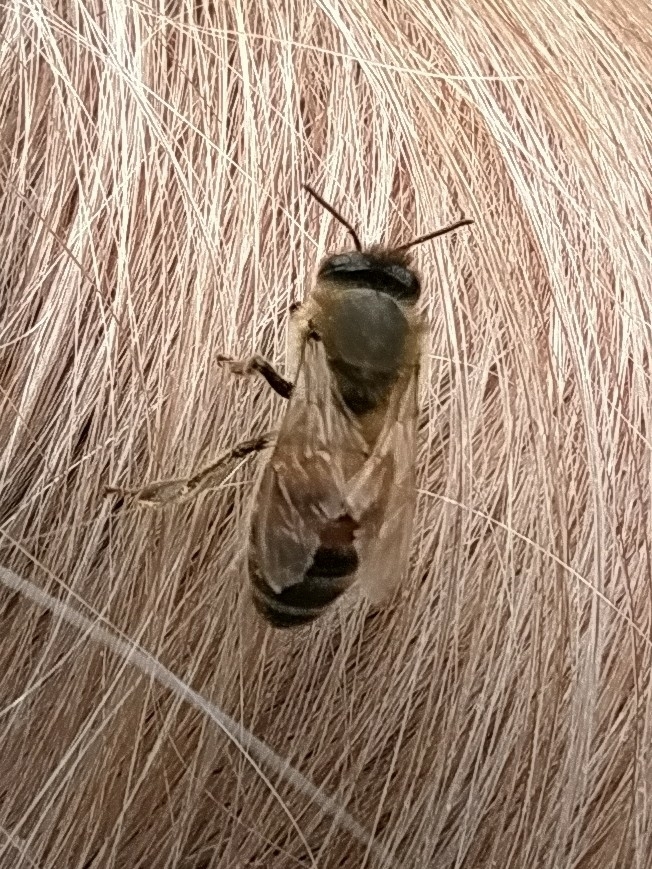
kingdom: Animalia
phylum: Arthropoda
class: Insecta
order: Hymenoptera
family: Apidae
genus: Apis
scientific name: Apis mellifera
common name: Honey bee
